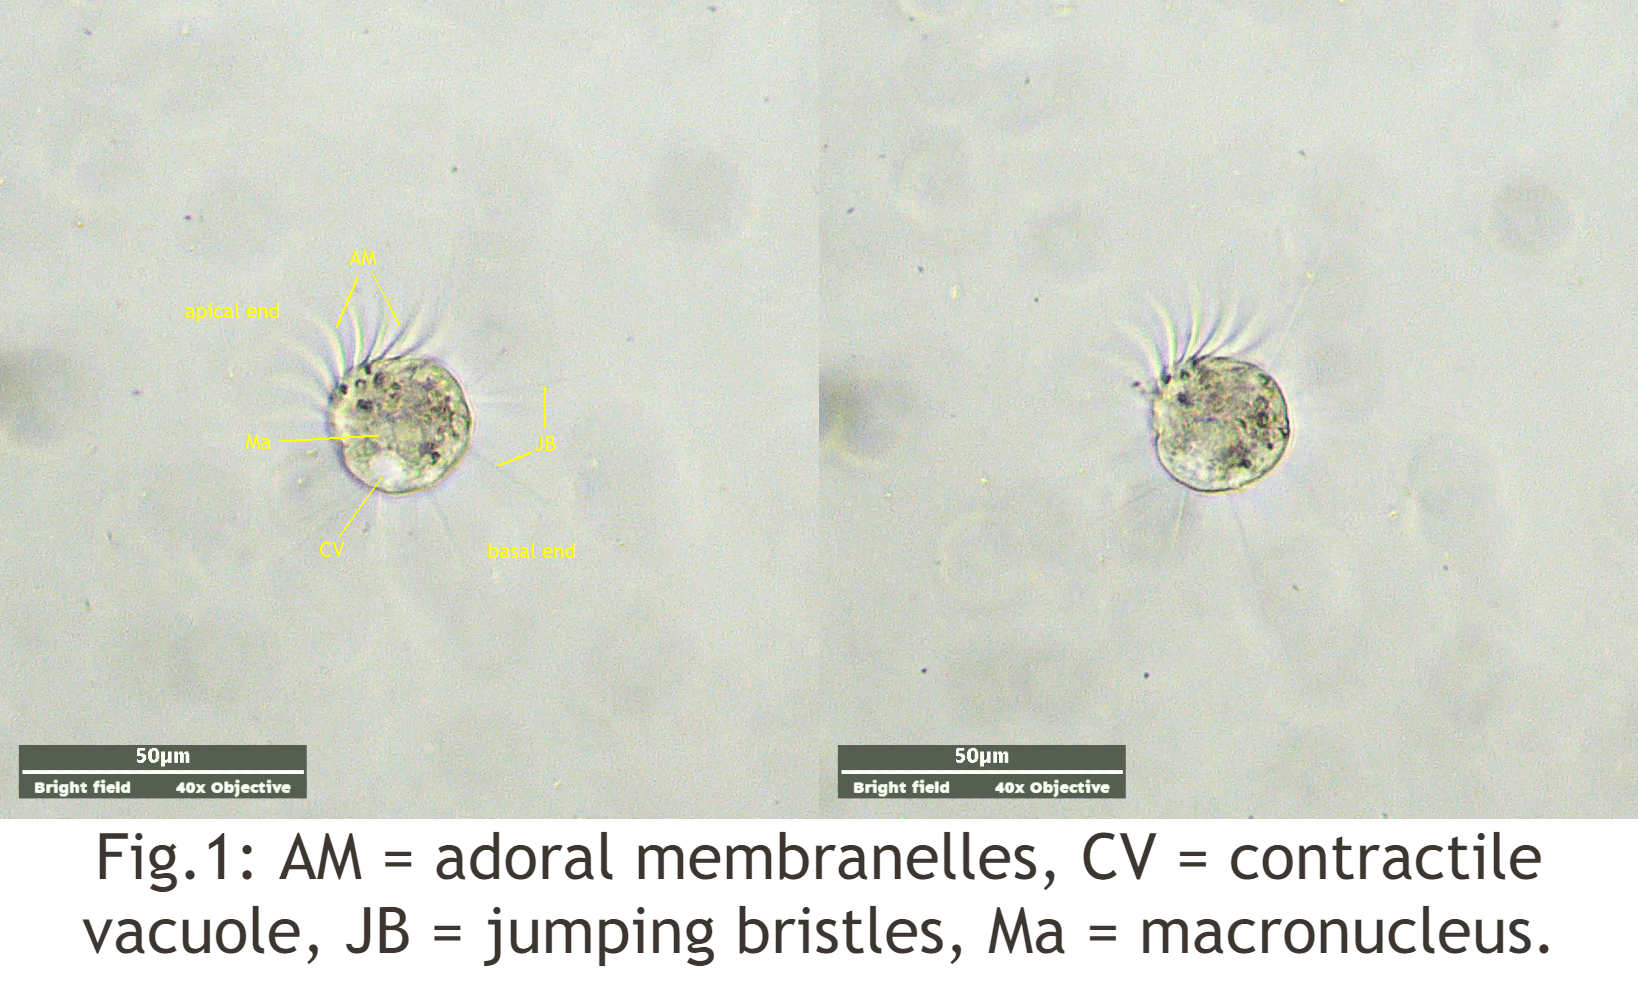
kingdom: Chromista
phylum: Ciliophora
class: Oligotrichea
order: Halteriida
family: Halteriidae
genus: Halteria
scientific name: Halteria grandinella
